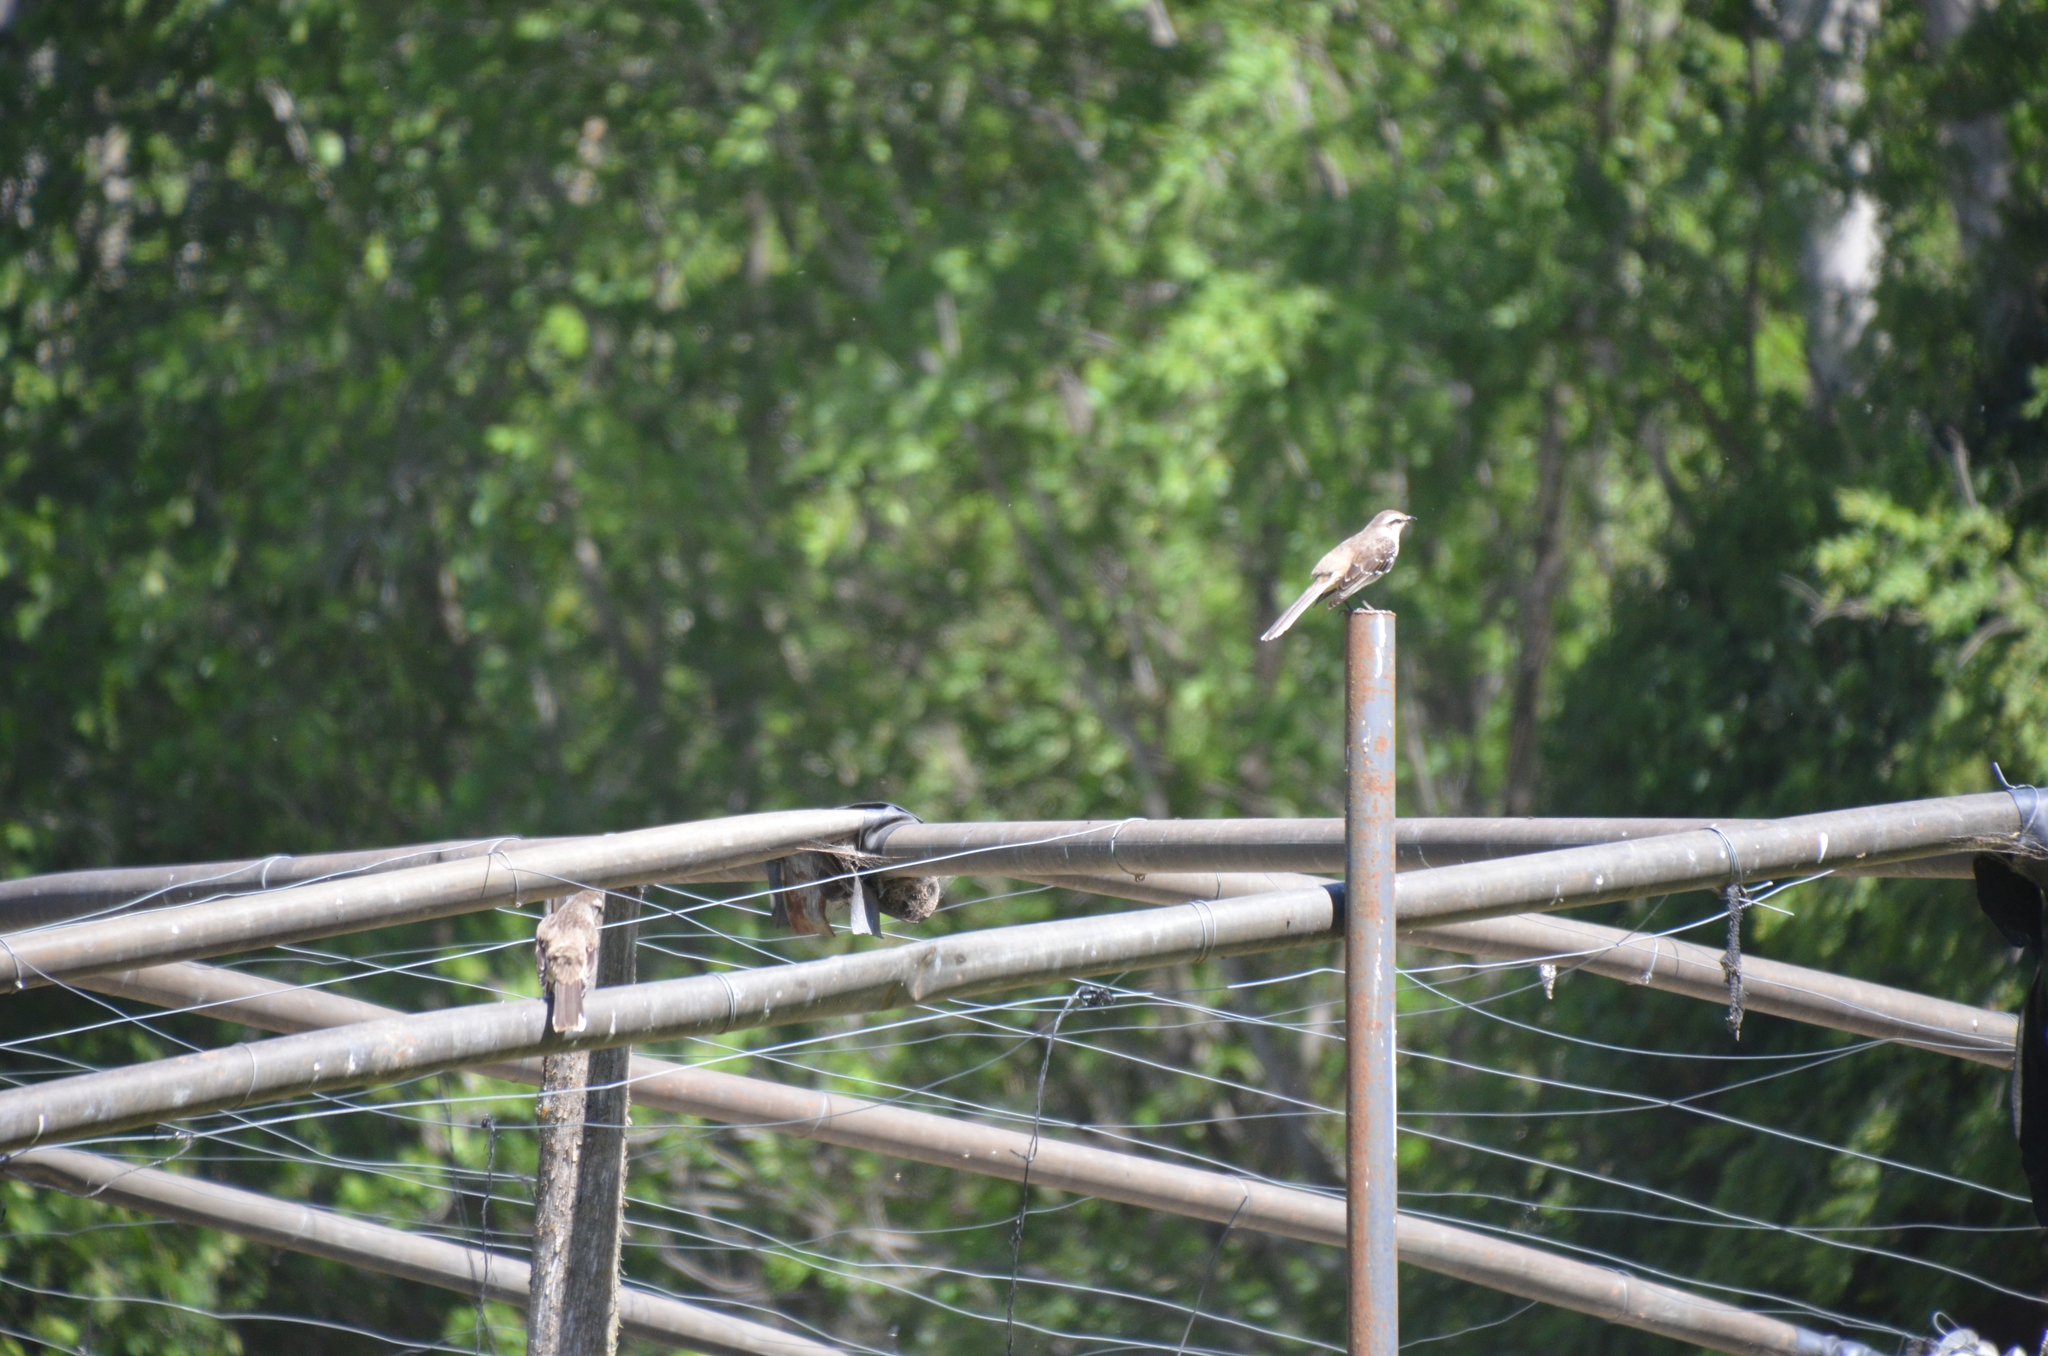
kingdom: Animalia
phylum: Chordata
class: Aves
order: Passeriformes
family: Mimidae
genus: Mimus
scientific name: Mimus saturninus
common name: Chalk-browed mockingbird
